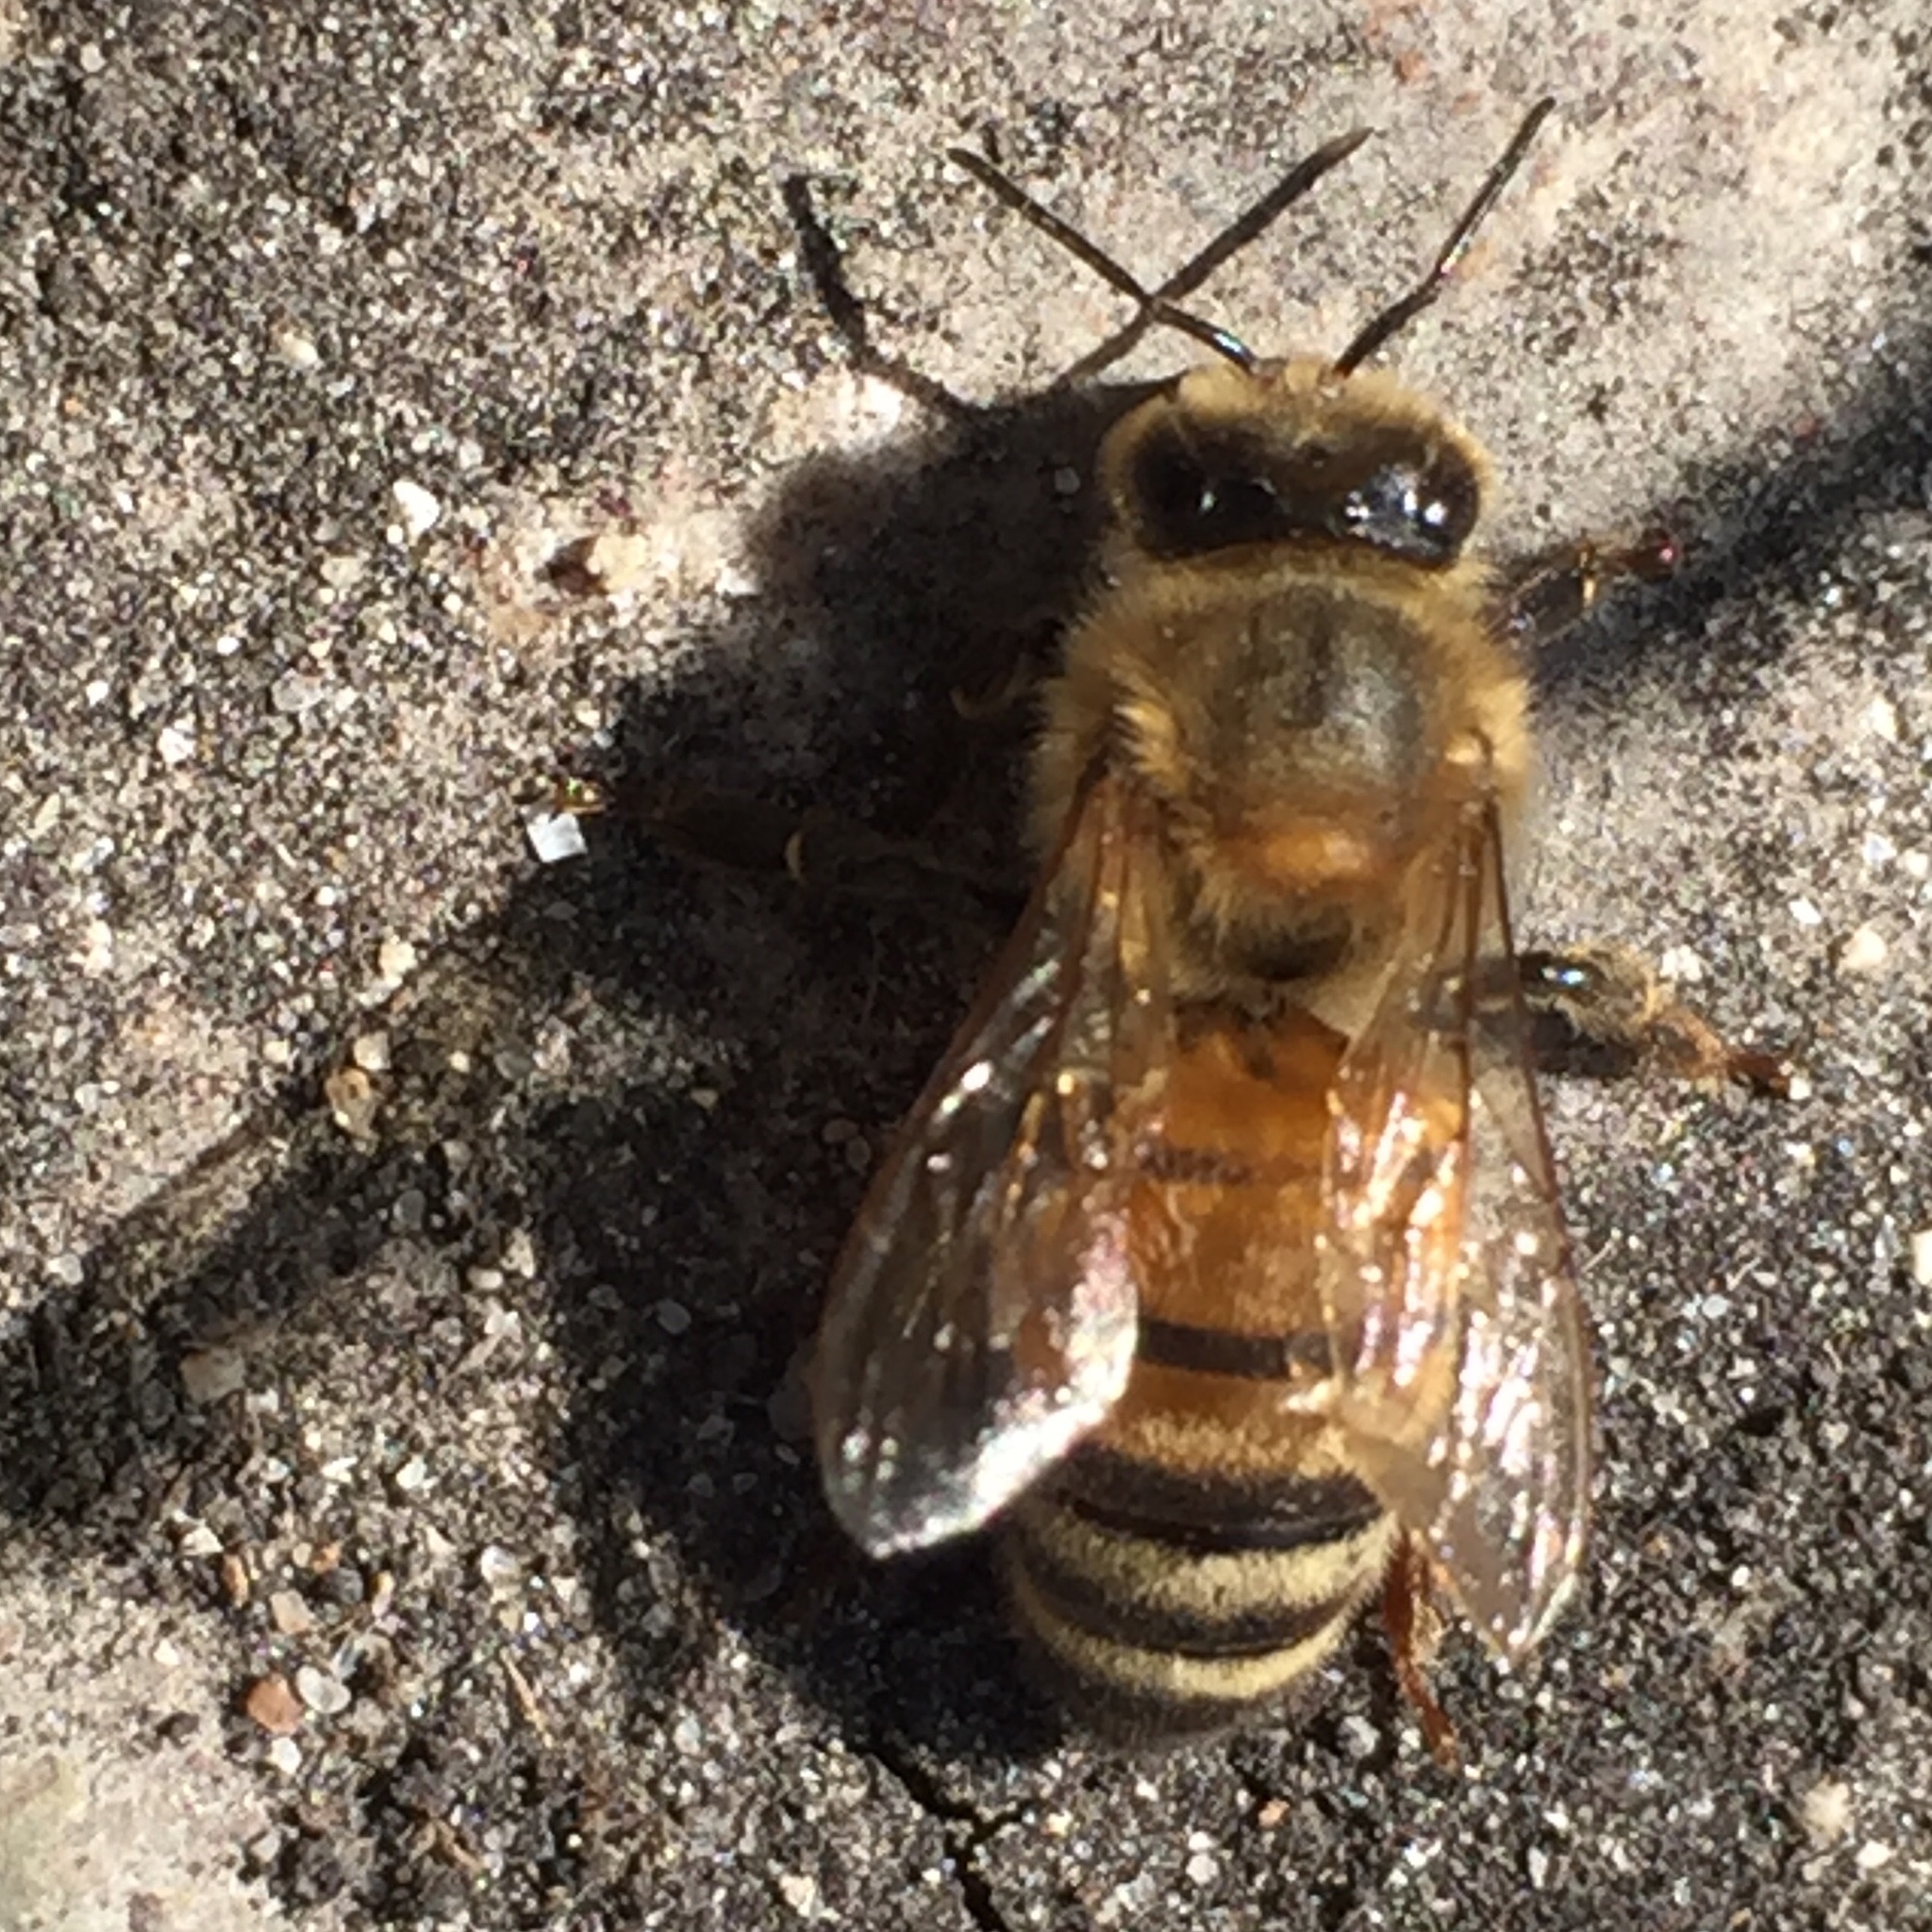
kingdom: Animalia
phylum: Arthropoda
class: Insecta
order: Hymenoptera
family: Apidae
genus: Apis
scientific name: Apis mellifera
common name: Honey bee
